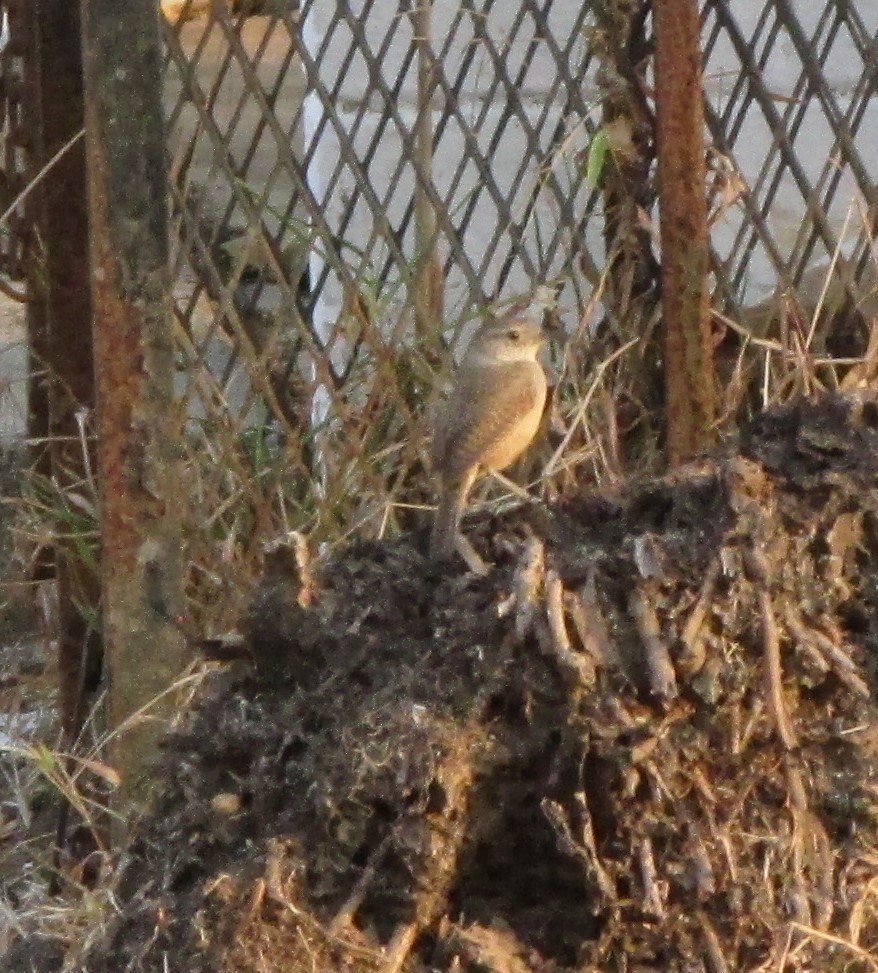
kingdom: Animalia
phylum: Chordata
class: Aves
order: Passeriformes
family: Troglodytidae
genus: Troglodytes
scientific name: Troglodytes aedon
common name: House wren
